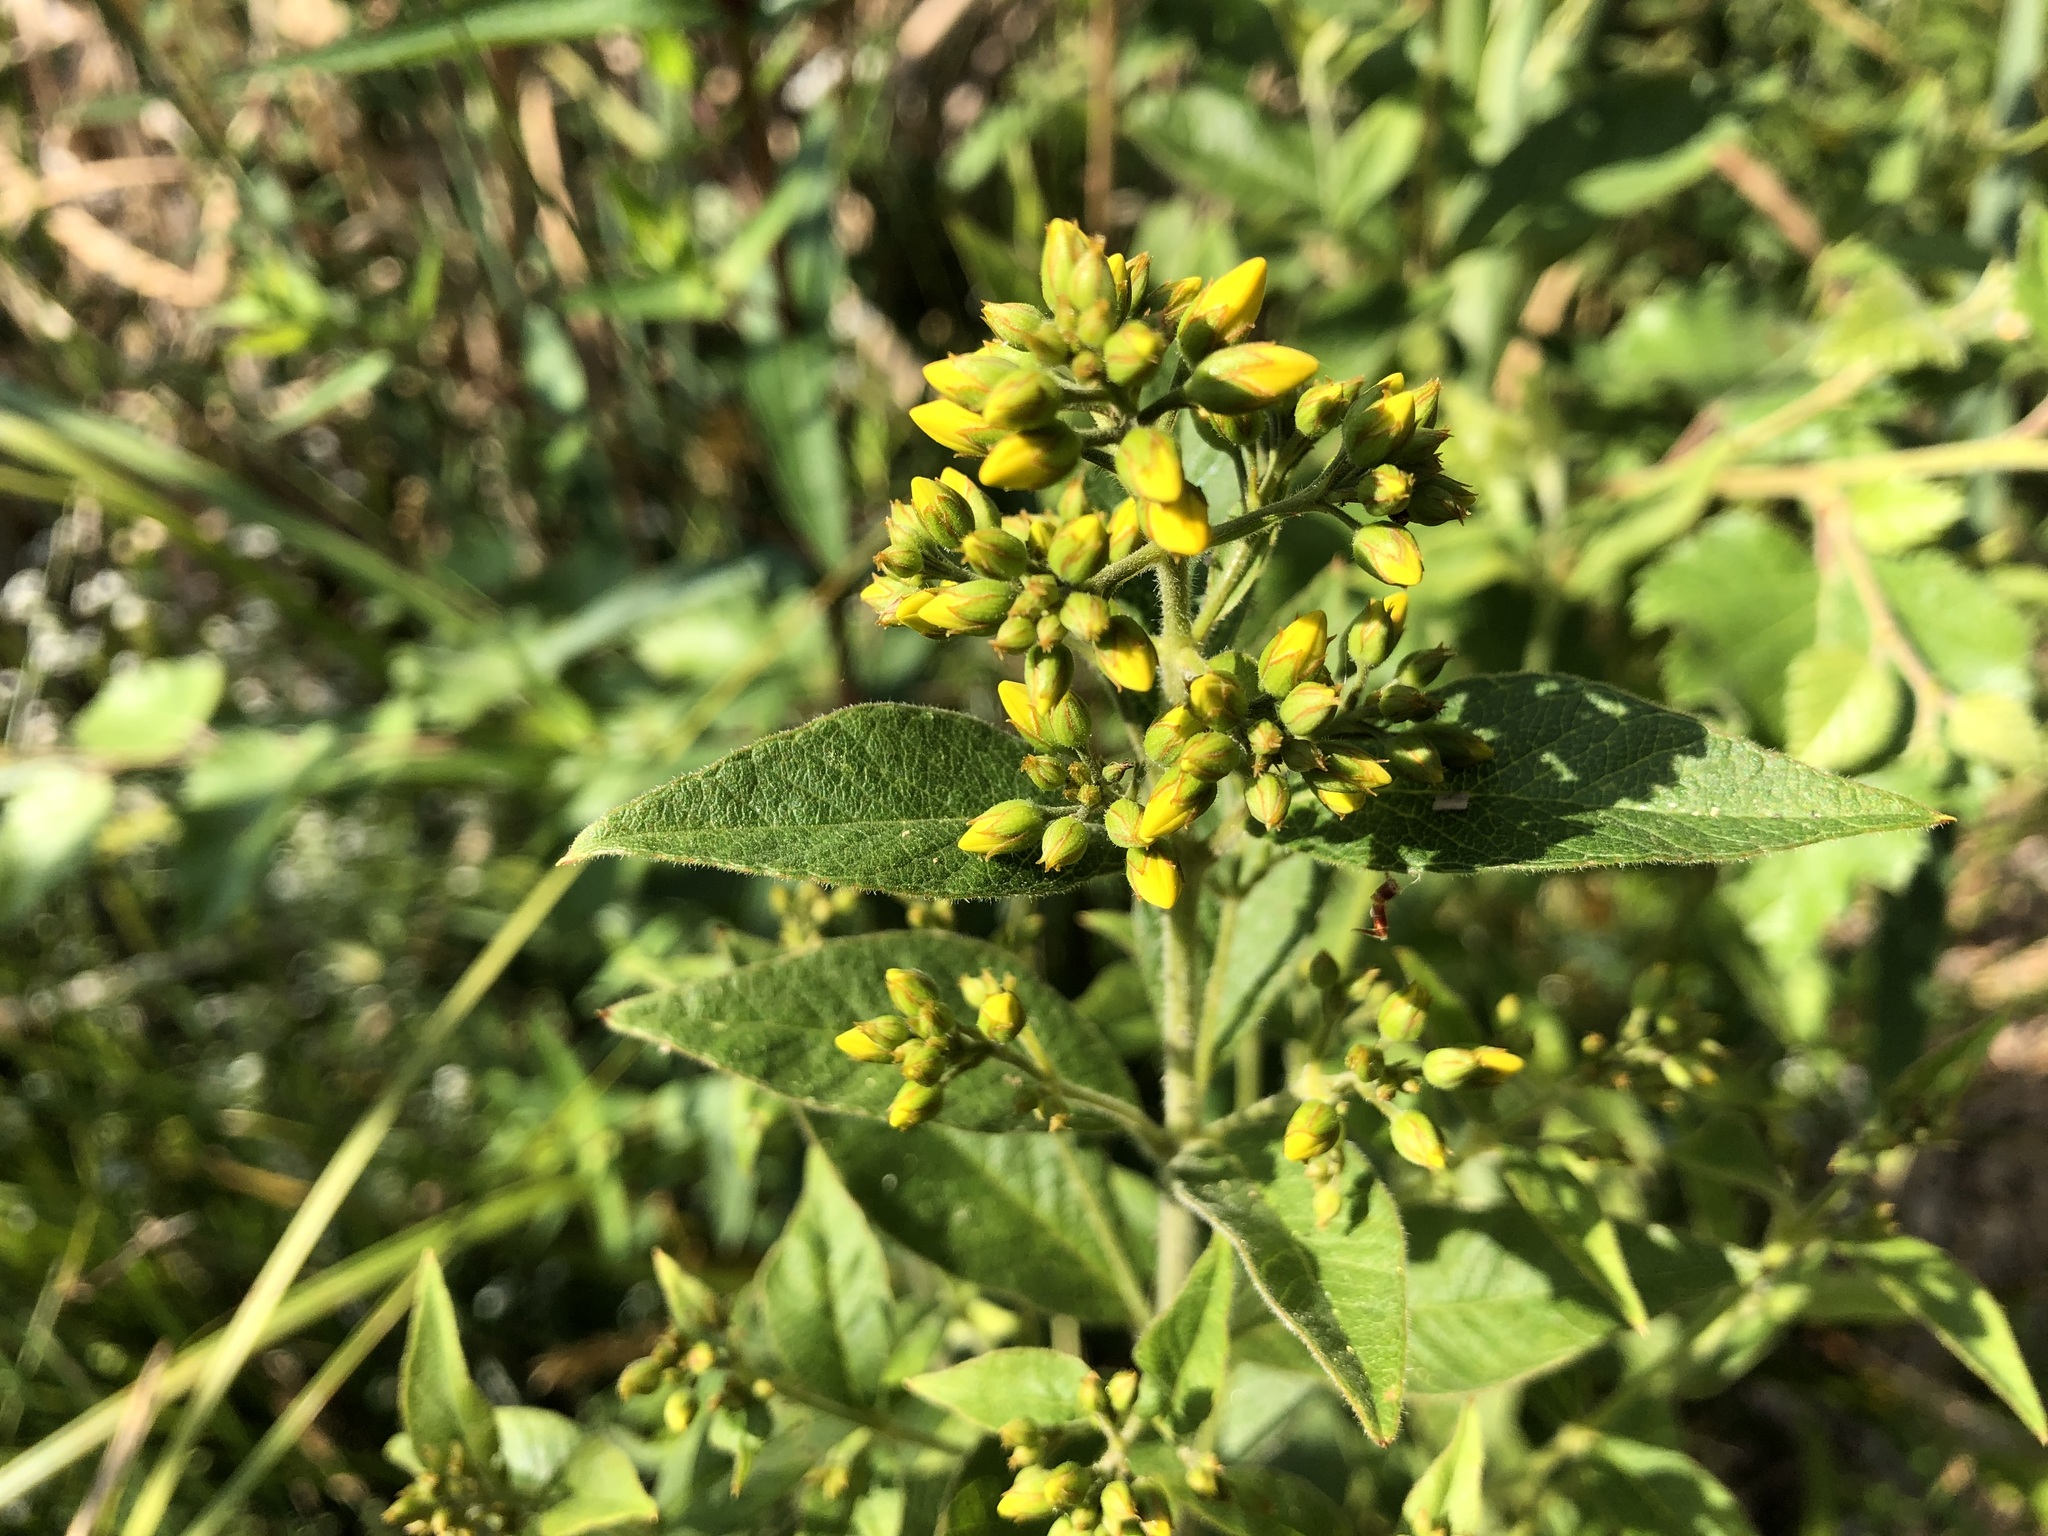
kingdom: Plantae
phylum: Tracheophyta
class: Magnoliopsida
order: Ericales
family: Primulaceae
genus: Lysimachia
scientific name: Lysimachia vulgaris
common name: Yellow loosestrife
